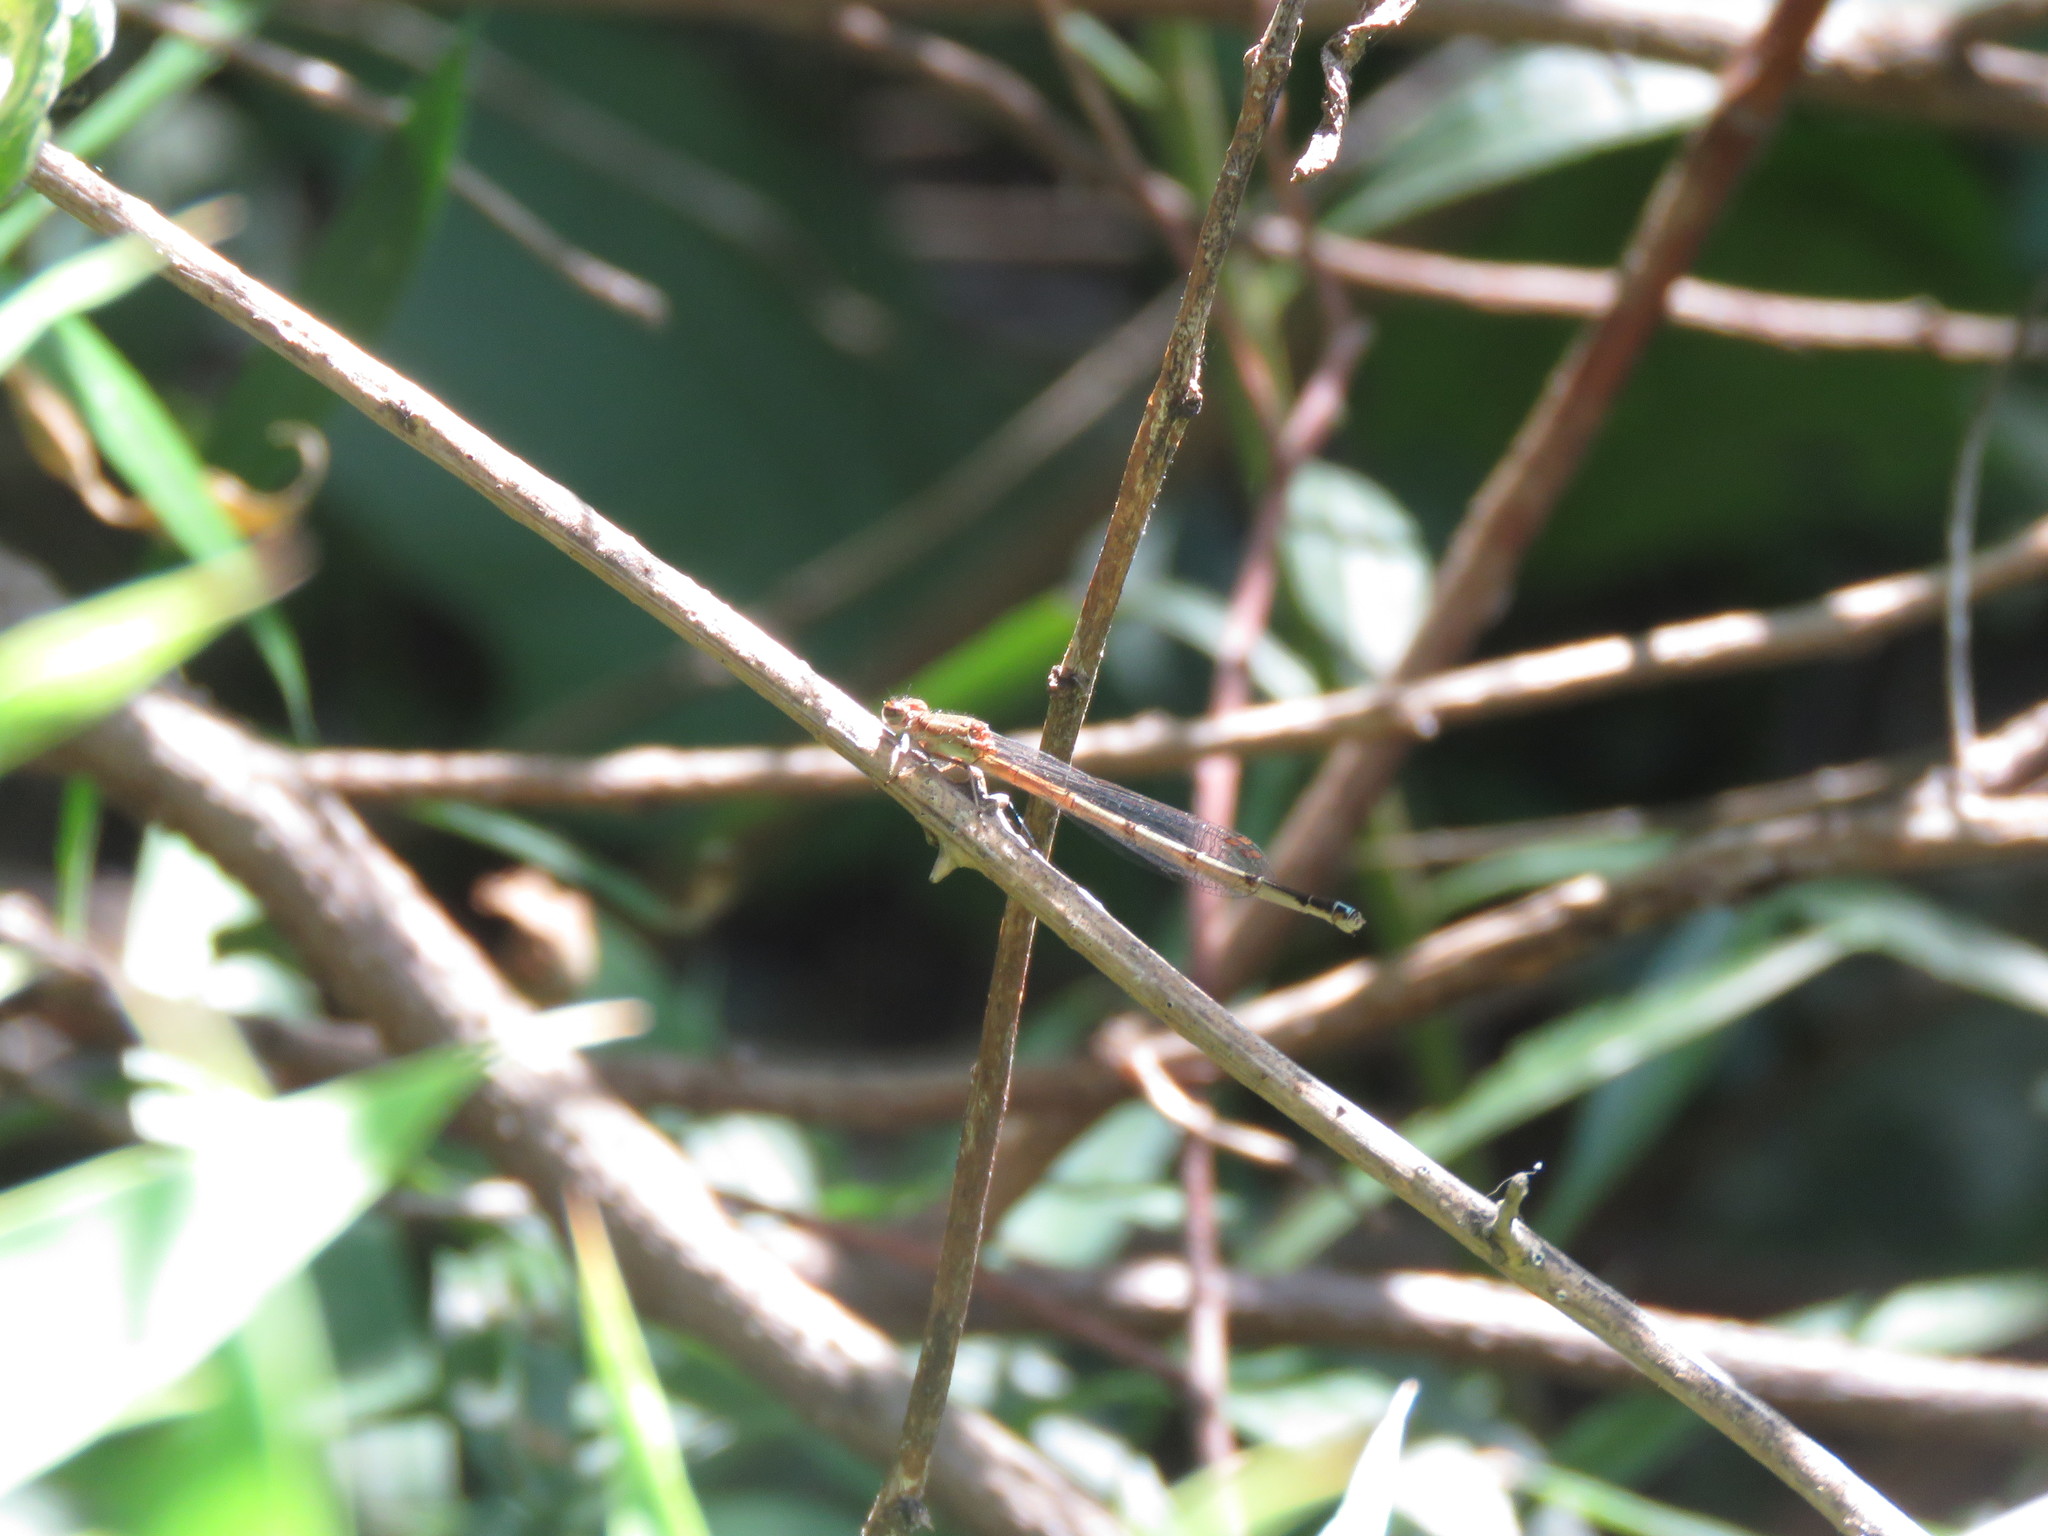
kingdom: Animalia
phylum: Arthropoda
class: Insecta
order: Odonata
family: Coenagrionidae
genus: Oxyagrion
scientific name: Oxyagrion terminale
